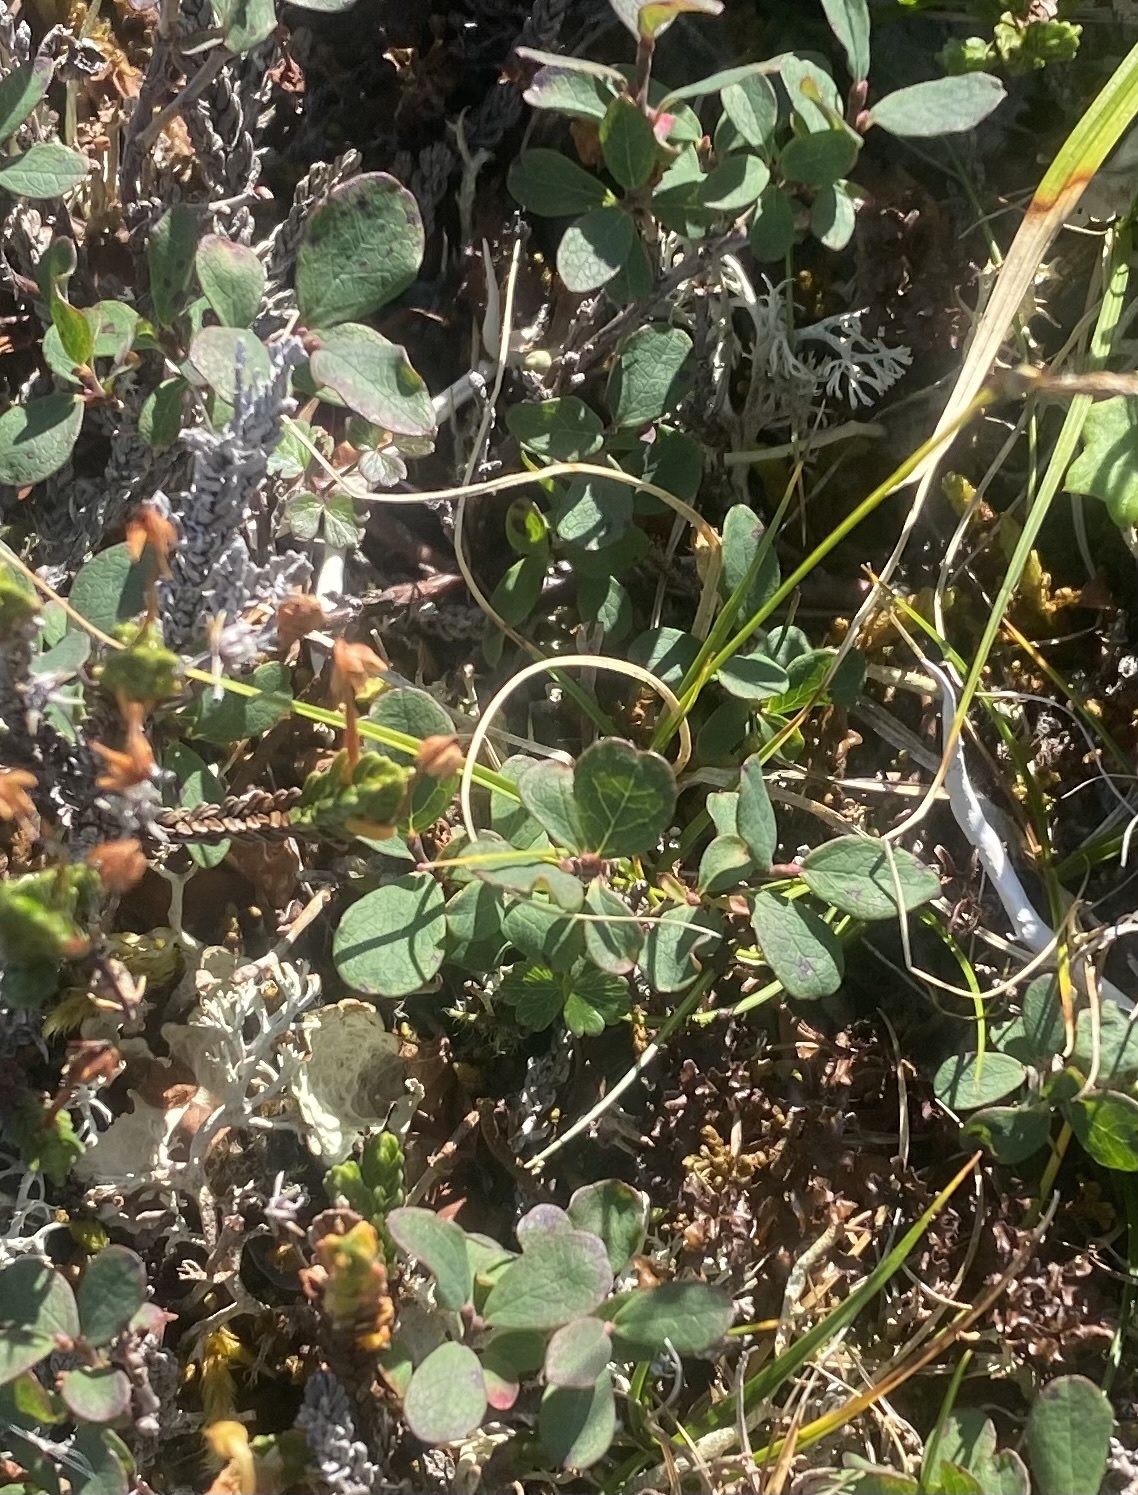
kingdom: Plantae
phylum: Tracheophyta
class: Magnoliopsida
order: Ericales
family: Ericaceae
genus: Vaccinium
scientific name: Vaccinium uliginosum
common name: Bog bilberry
